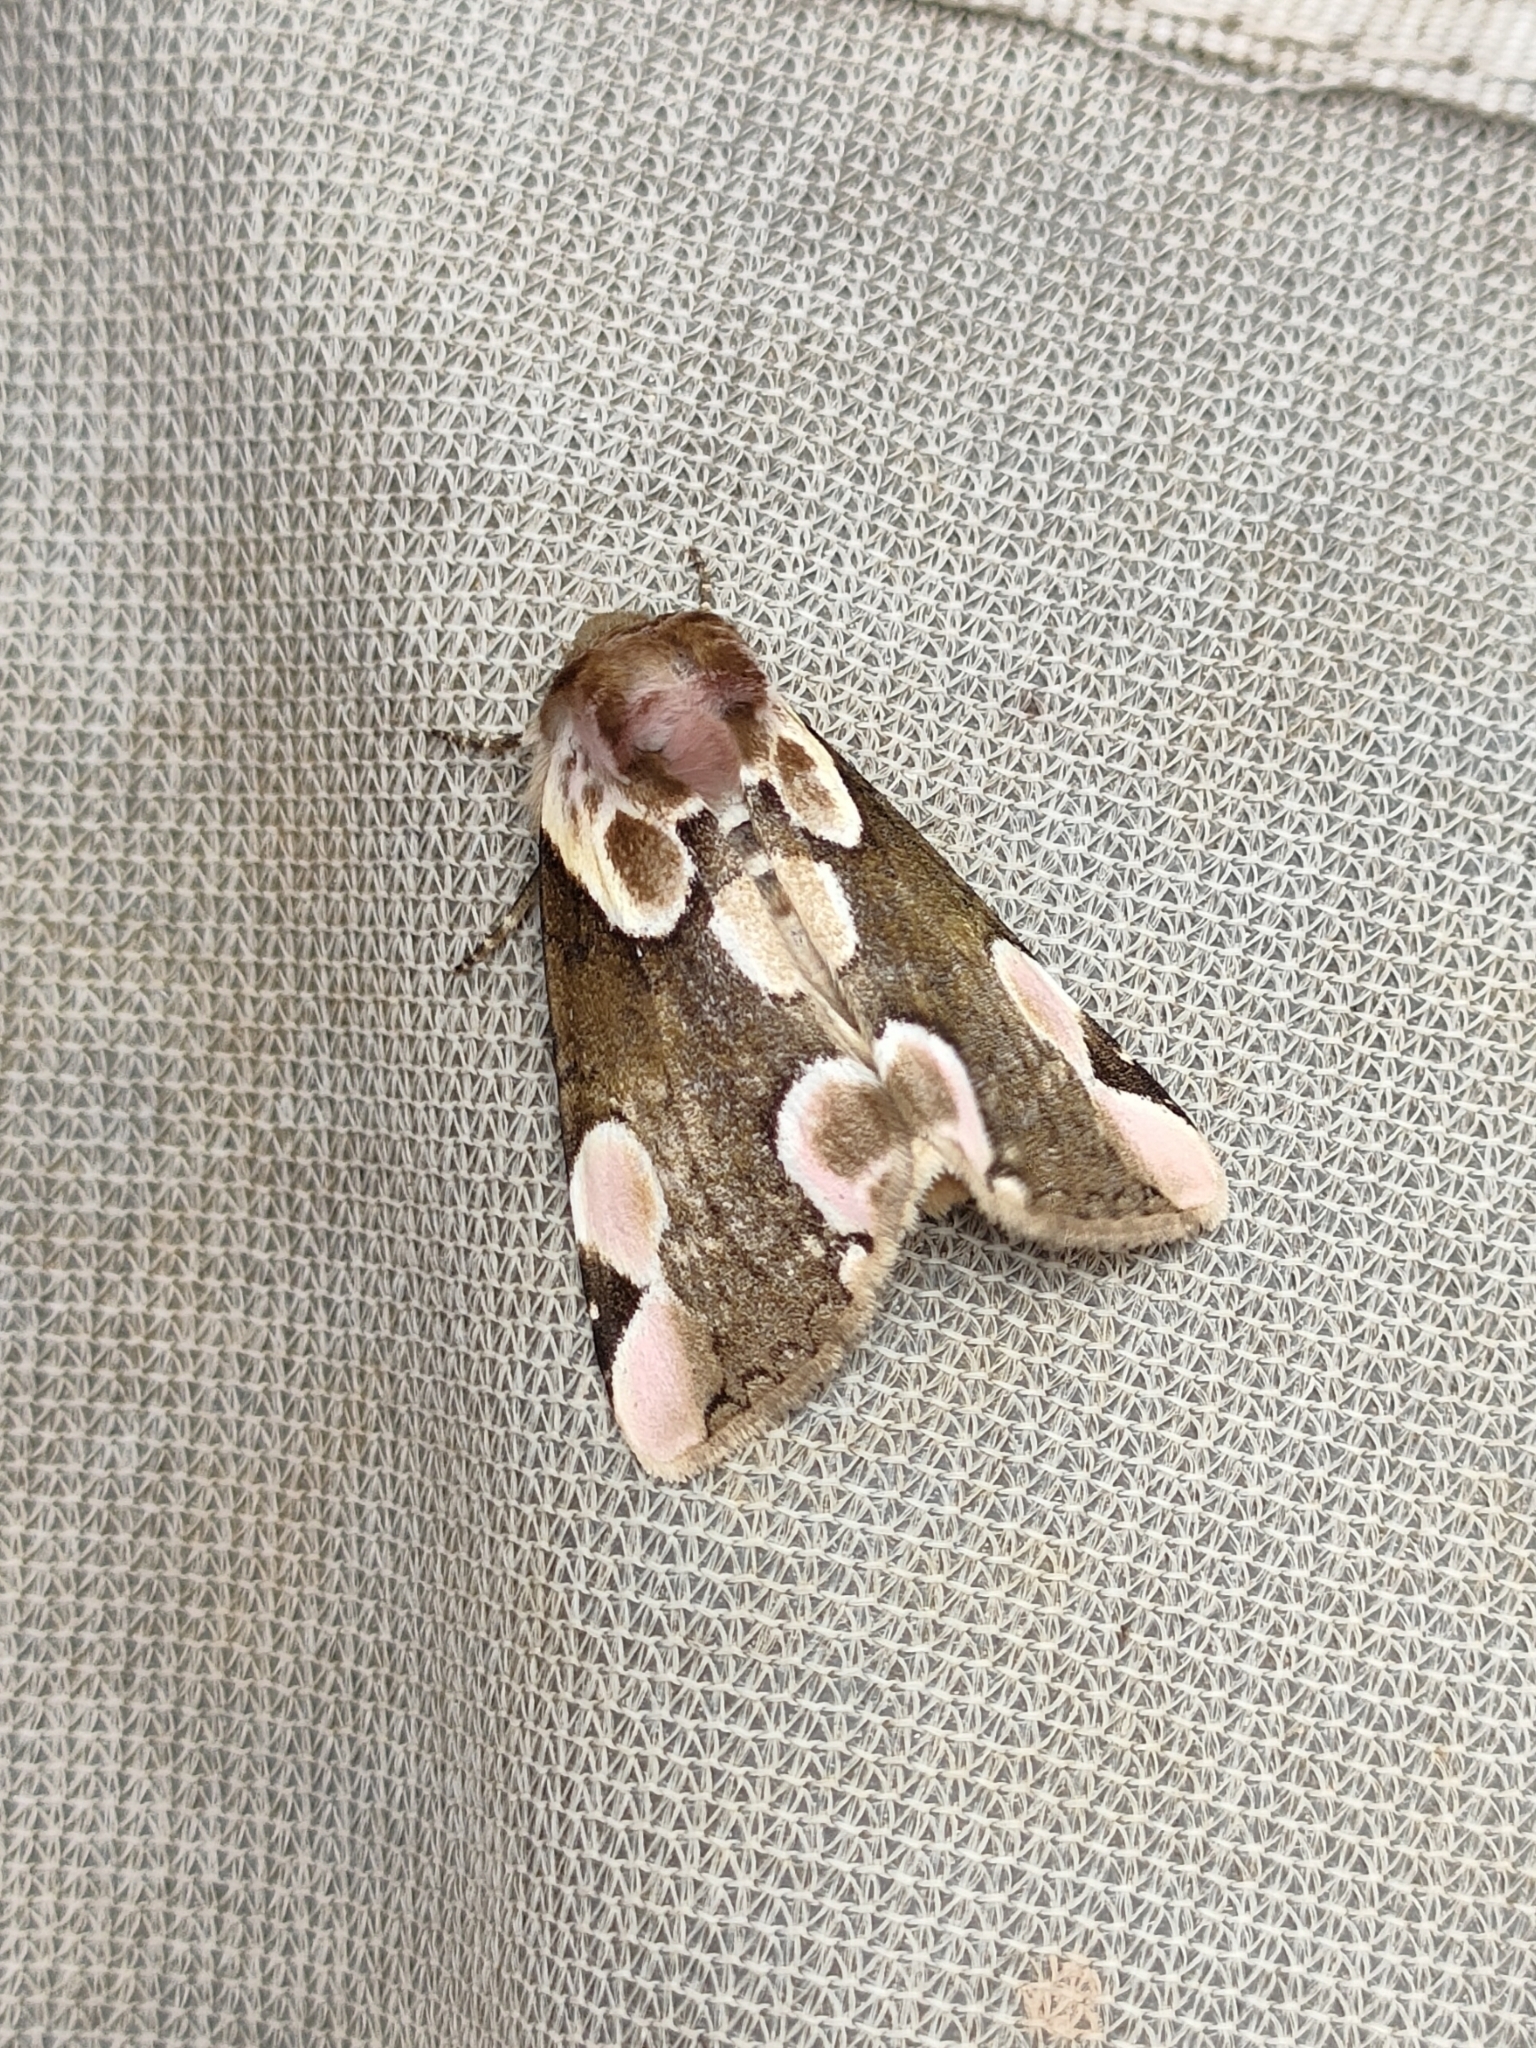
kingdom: Animalia
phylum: Arthropoda
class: Insecta
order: Lepidoptera
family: Drepanidae
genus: Thyatira
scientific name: Thyatira batis
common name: Peach blossom
